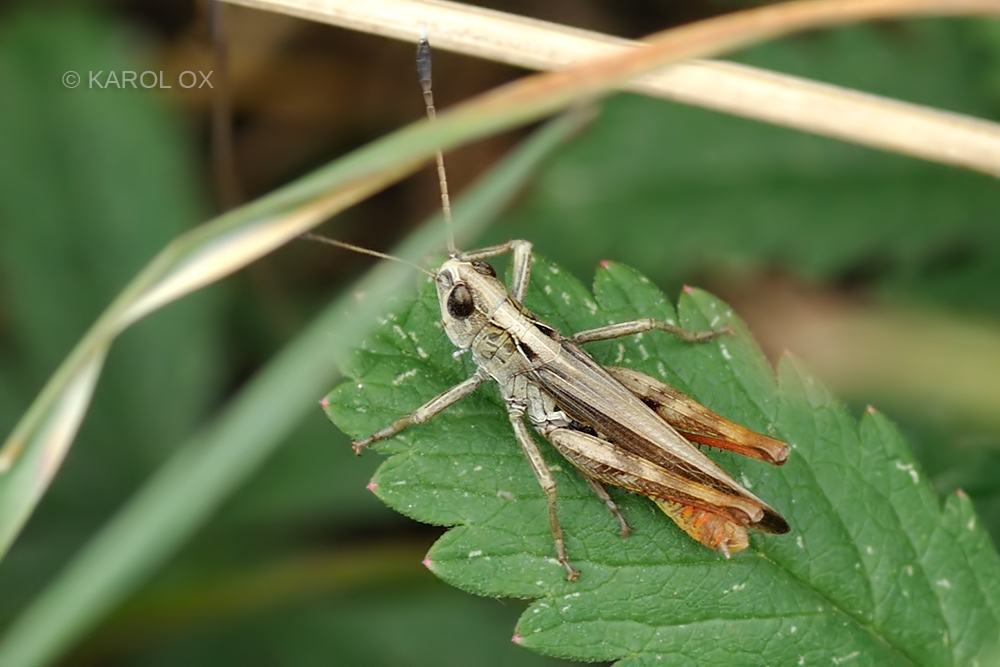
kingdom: Animalia
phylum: Arthropoda
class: Insecta
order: Orthoptera
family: Acrididae
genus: Gomphocerippus
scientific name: Gomphocerippus rufus
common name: Rufous grasshopper
